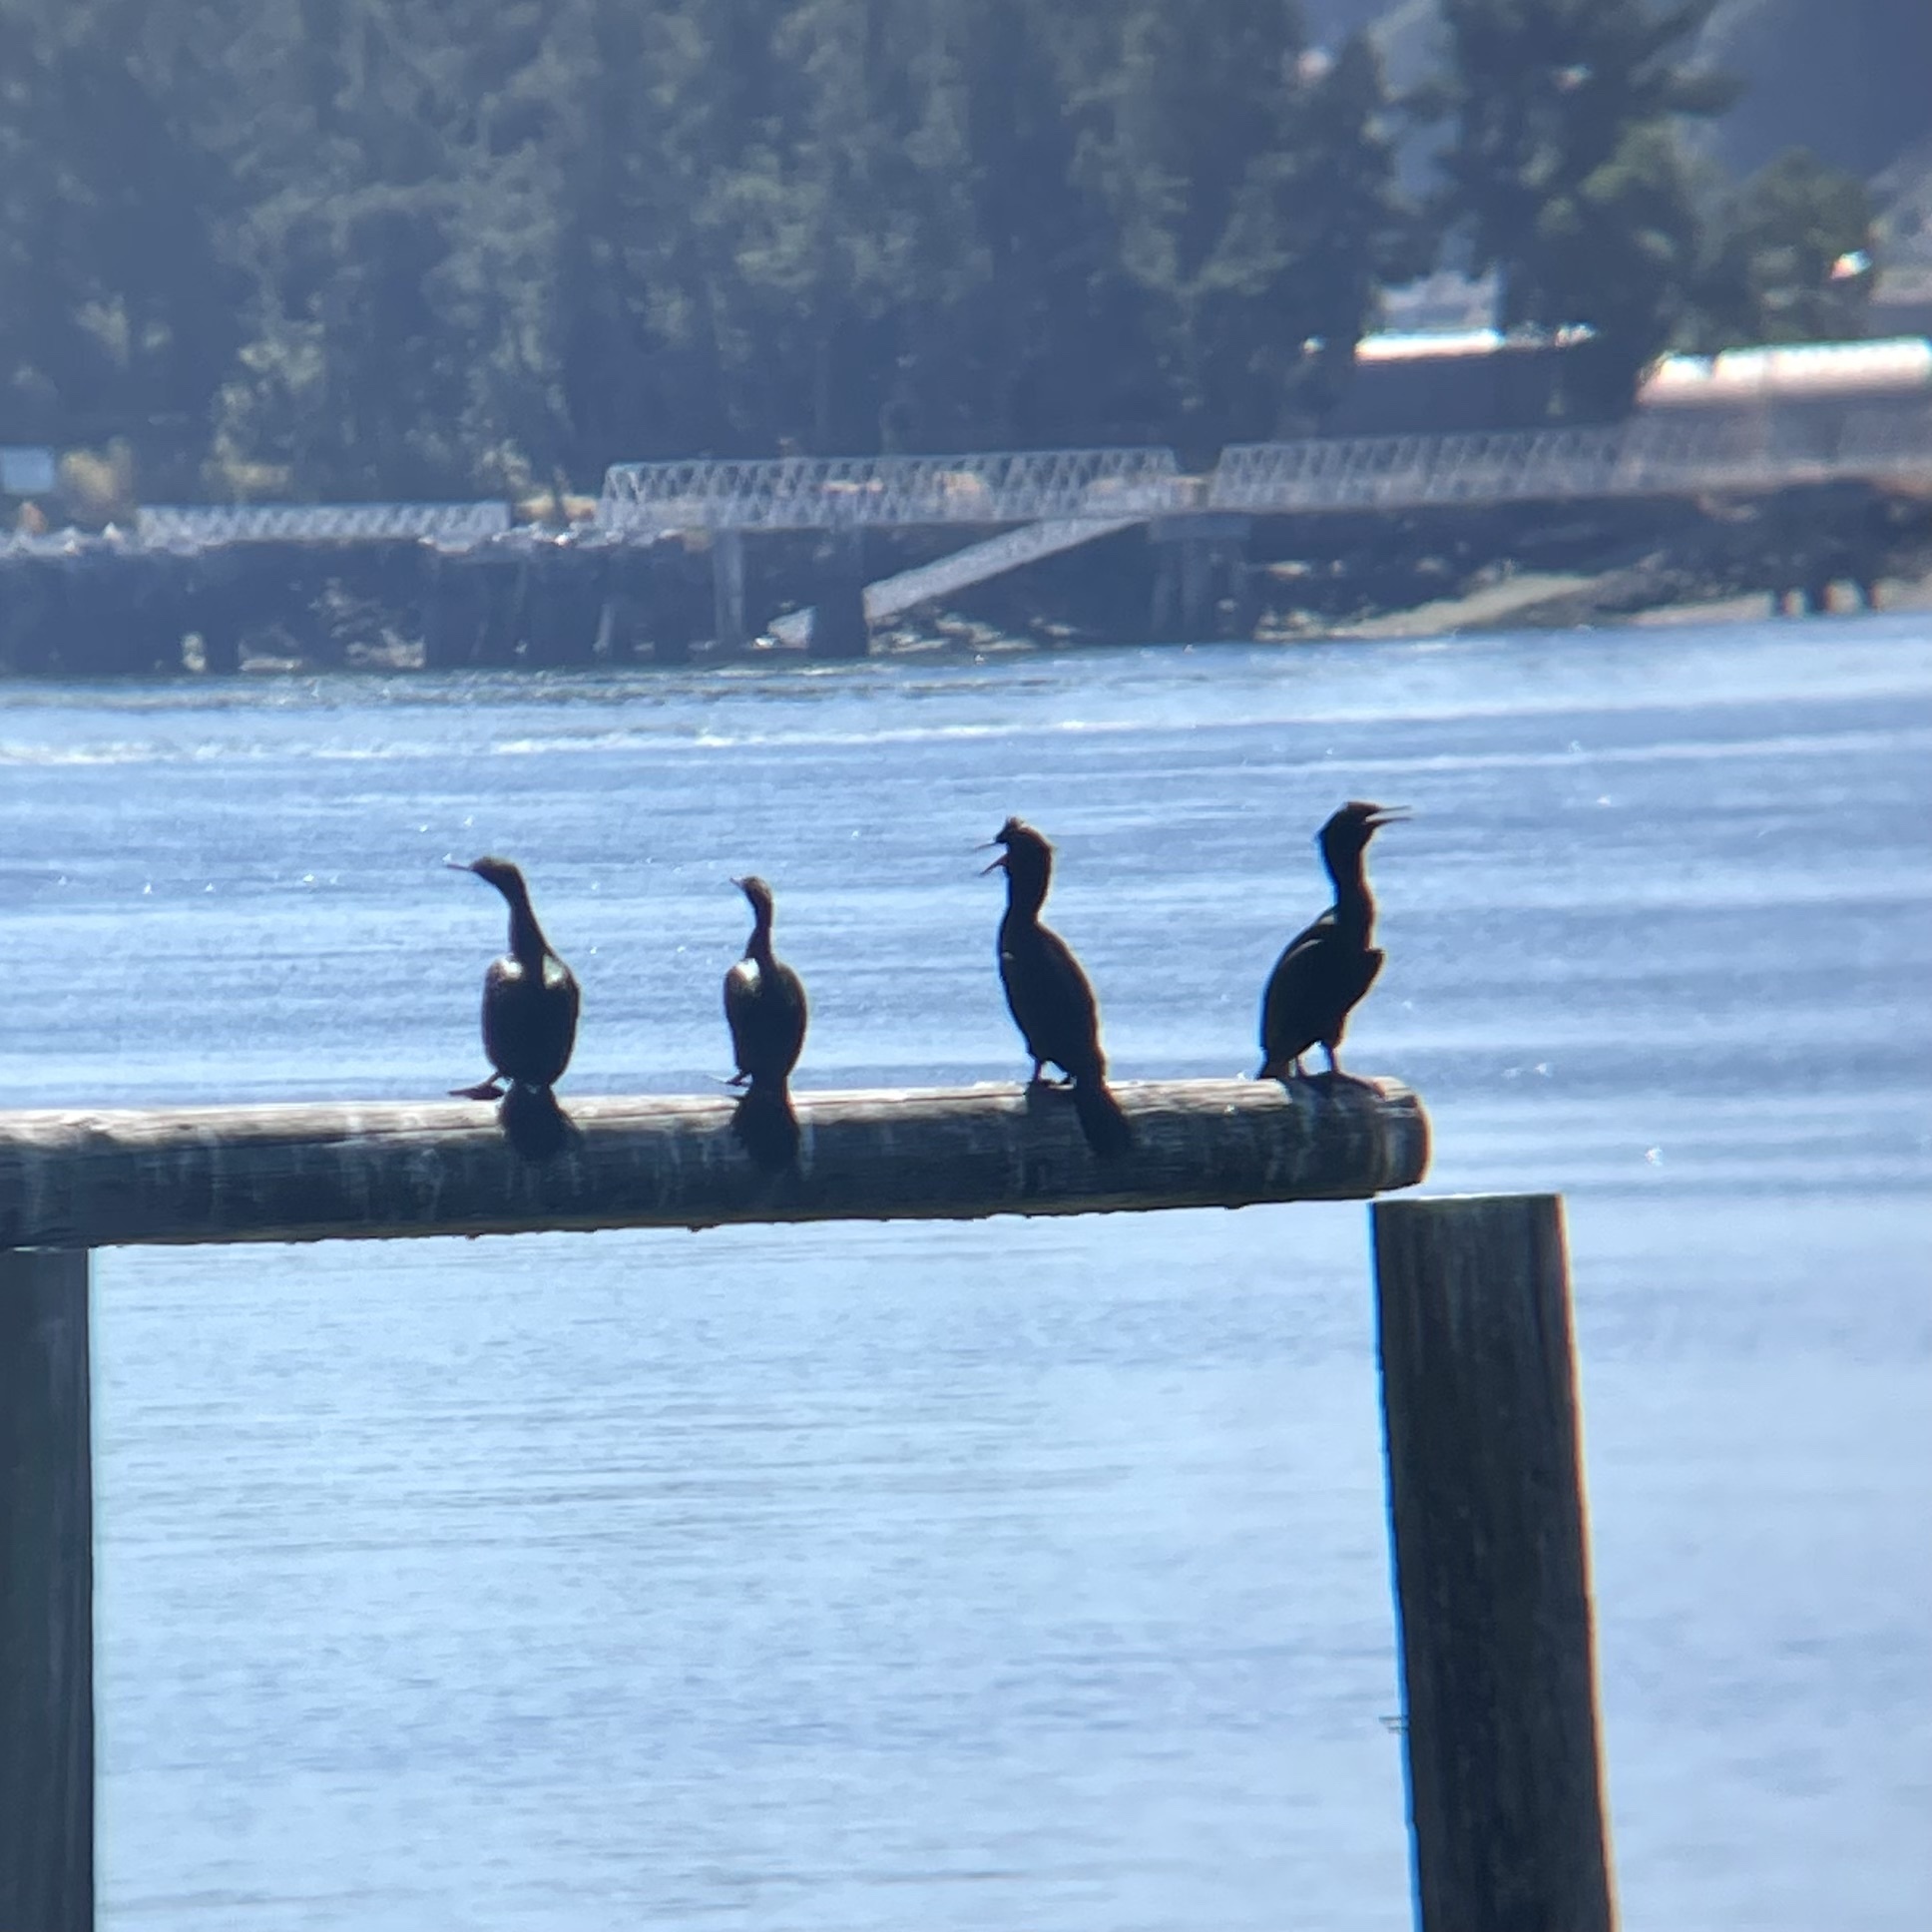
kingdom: Animalia
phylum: Chordata
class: Aves
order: Suliformes
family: Phalacrocoracidae
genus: Phalacrocorax
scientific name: Phalacrocorax pelagicus
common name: Pelagic cormorant
